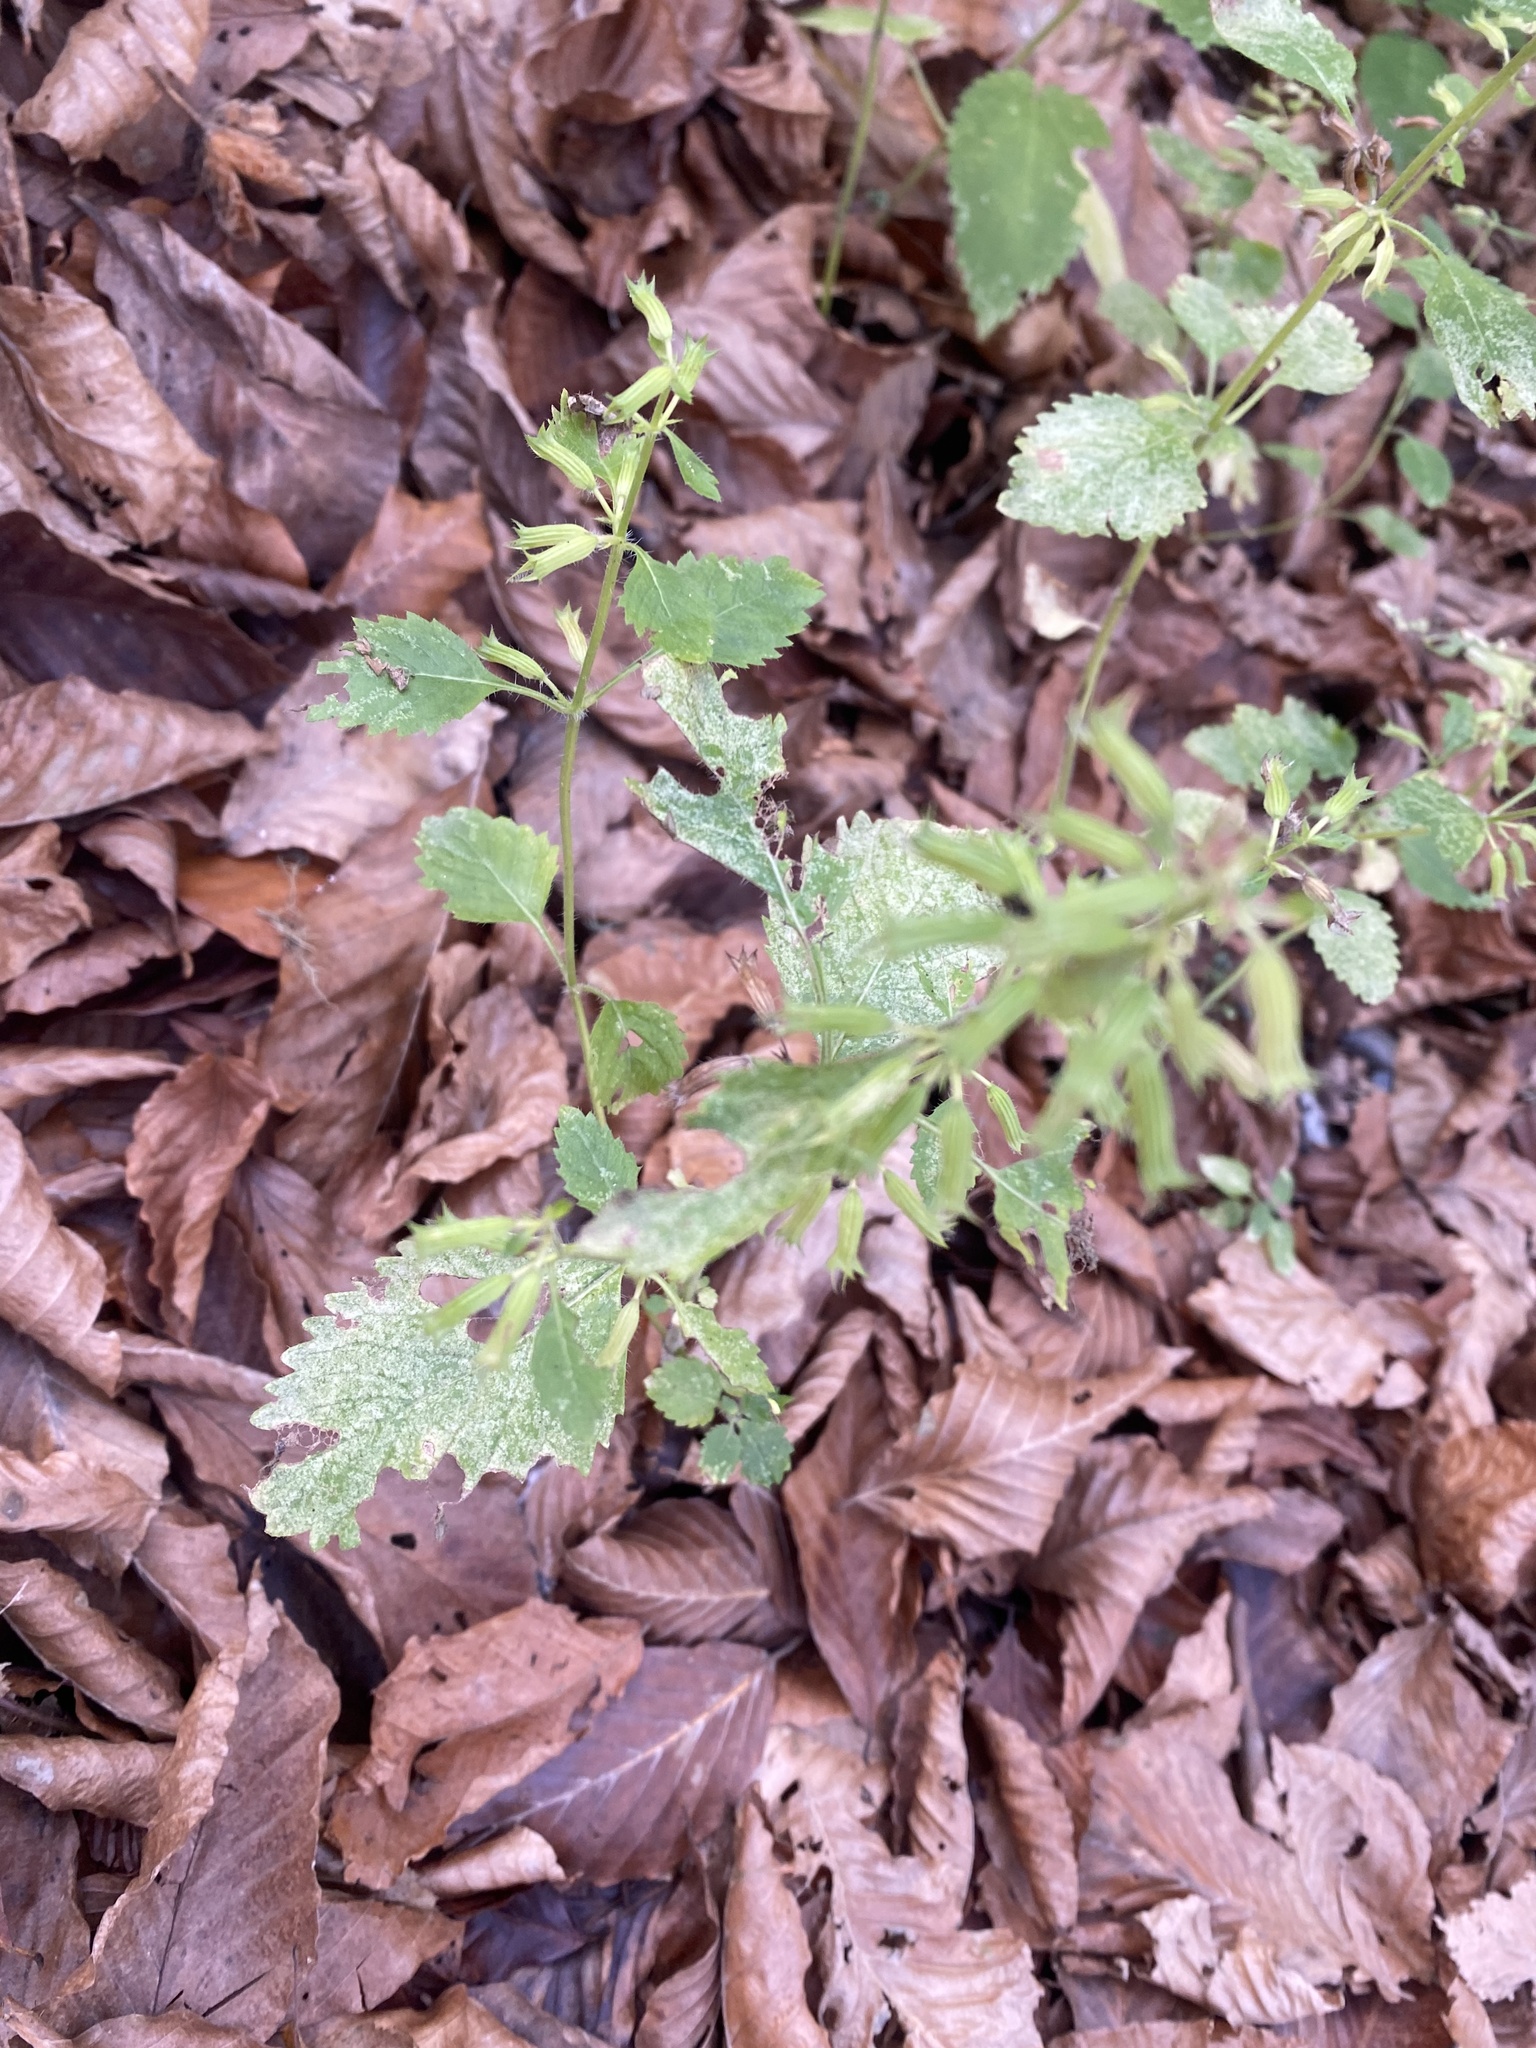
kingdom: Plantae
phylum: Tracheophyta
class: Magnoliopsida
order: Lamiales
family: Lamiaceae
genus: Clinopodium
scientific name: Clinopodium grandiflorum
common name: Greater calamint
